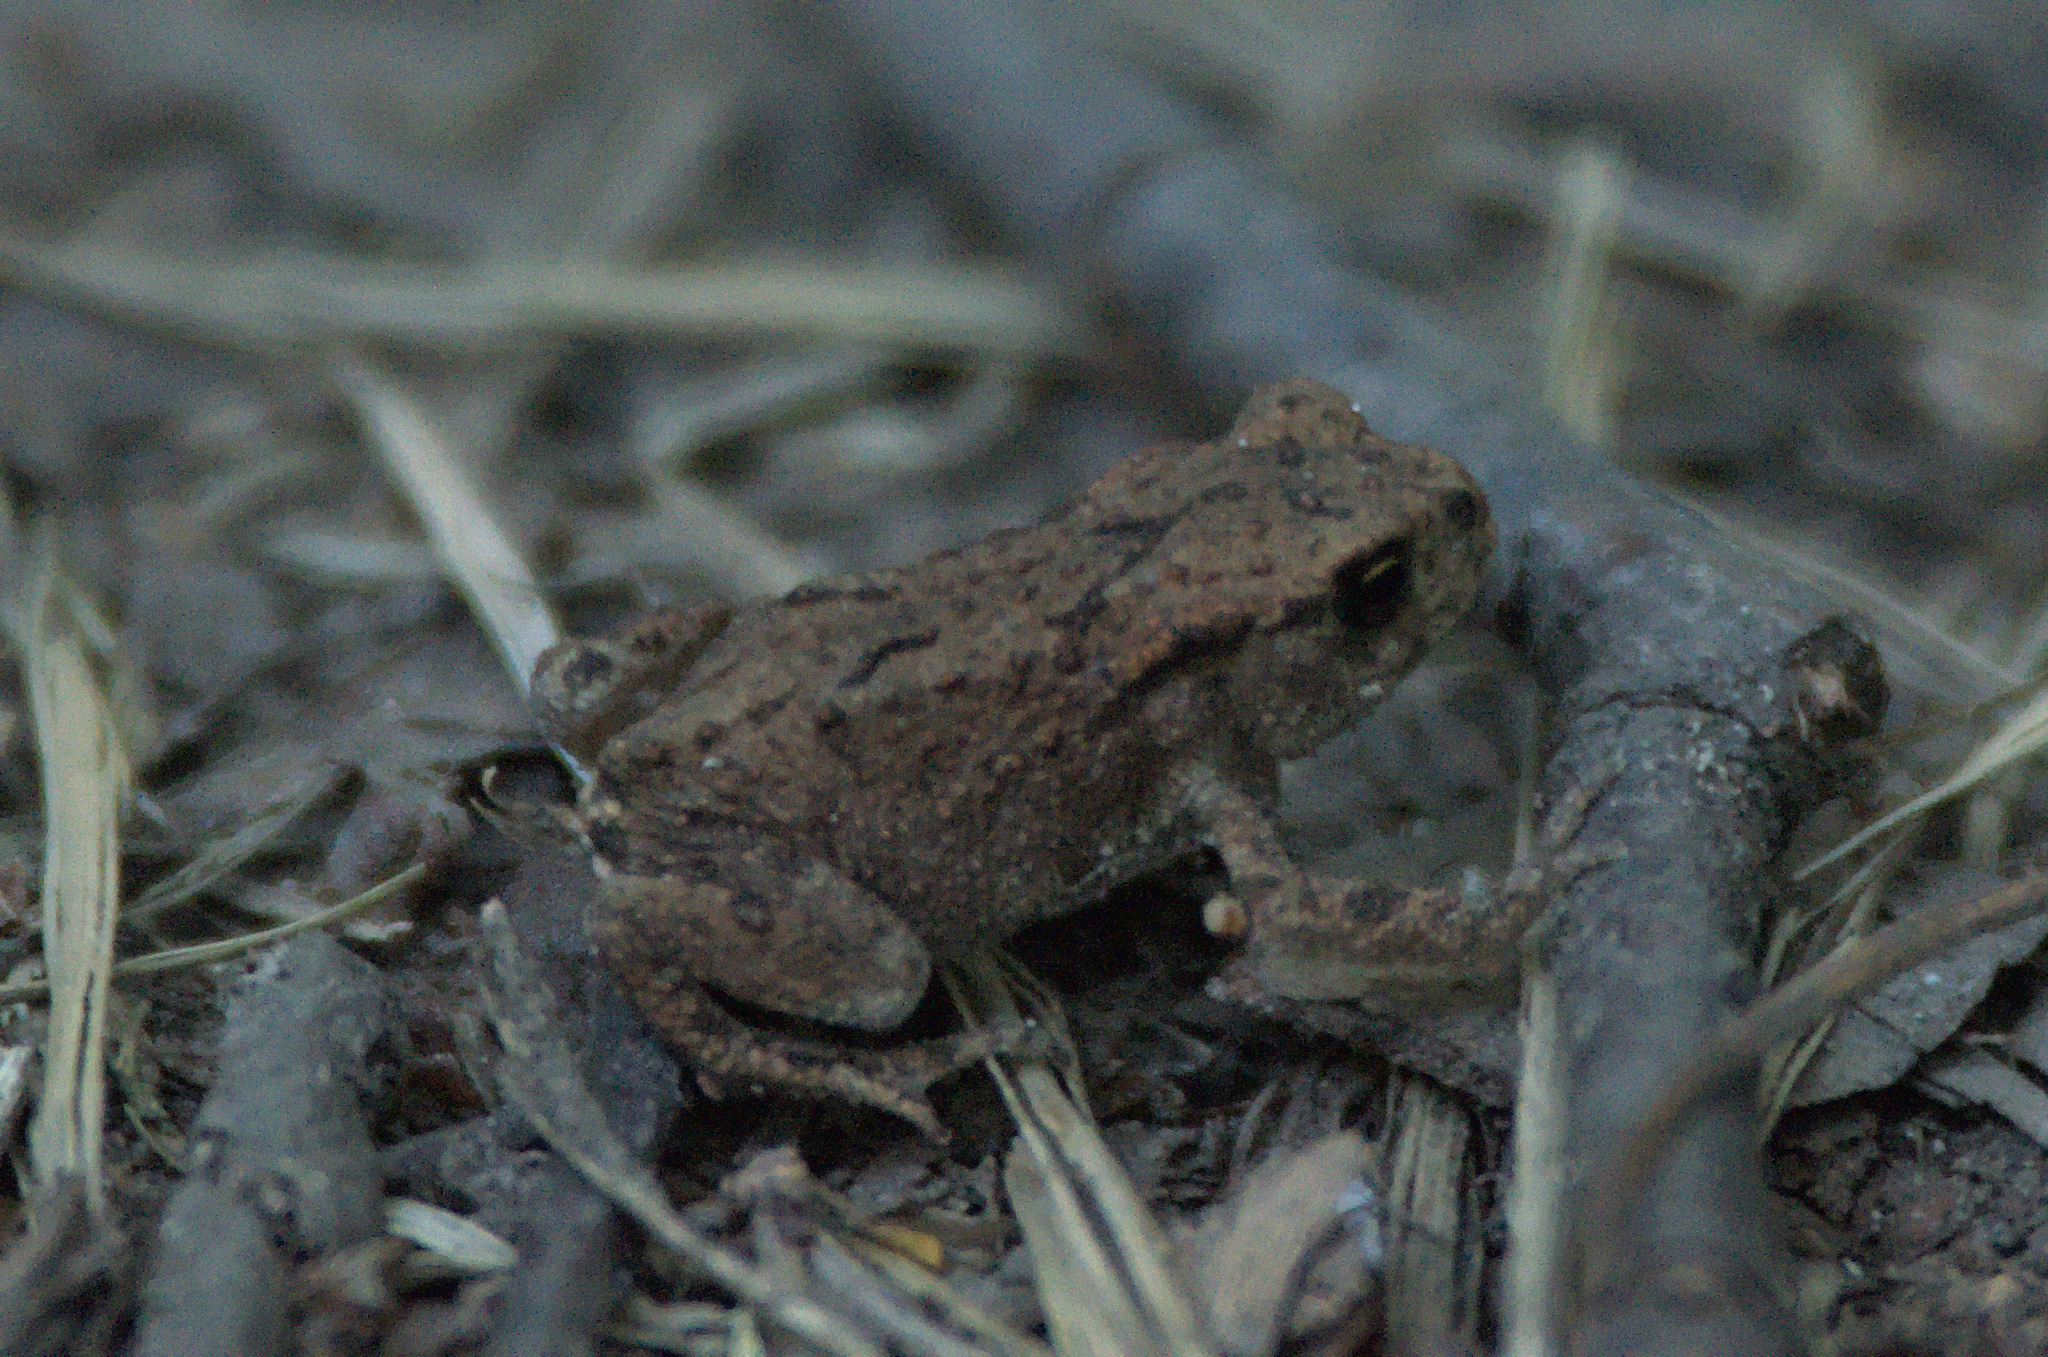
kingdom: Animalia
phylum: Chordata
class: Amphibia
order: Anura
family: Bufonidae
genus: Bufo
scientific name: Bufo bufo
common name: Common toad
